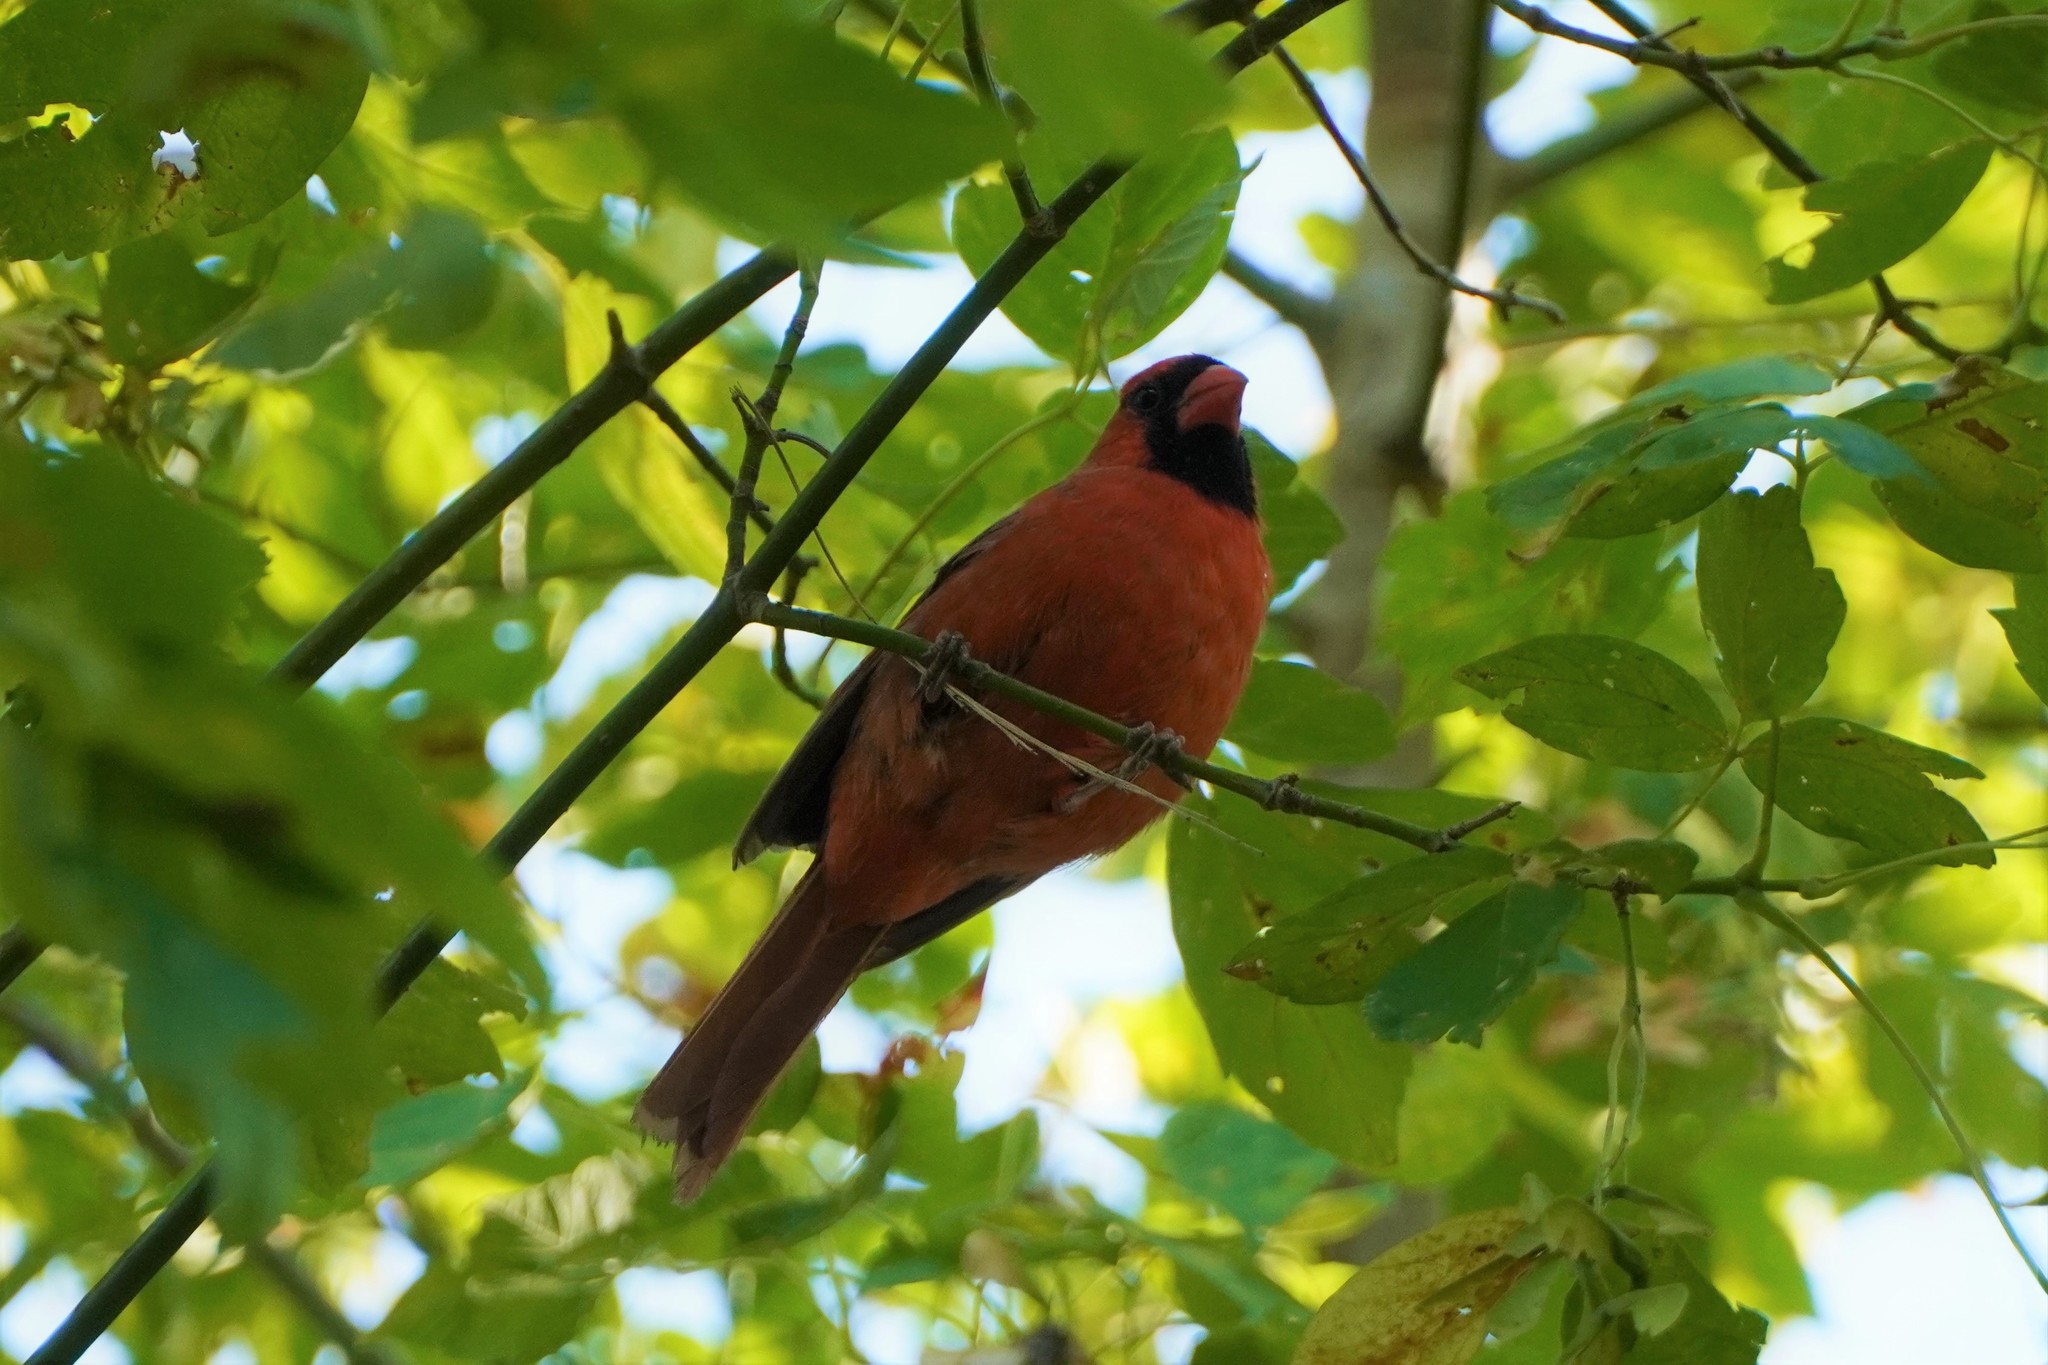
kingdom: Animalia
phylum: Chordata
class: Aves
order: Passeriformes
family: Cardinalidae
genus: Cardinalis
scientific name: Cardinalis cardinalis
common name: Northern cardinal
